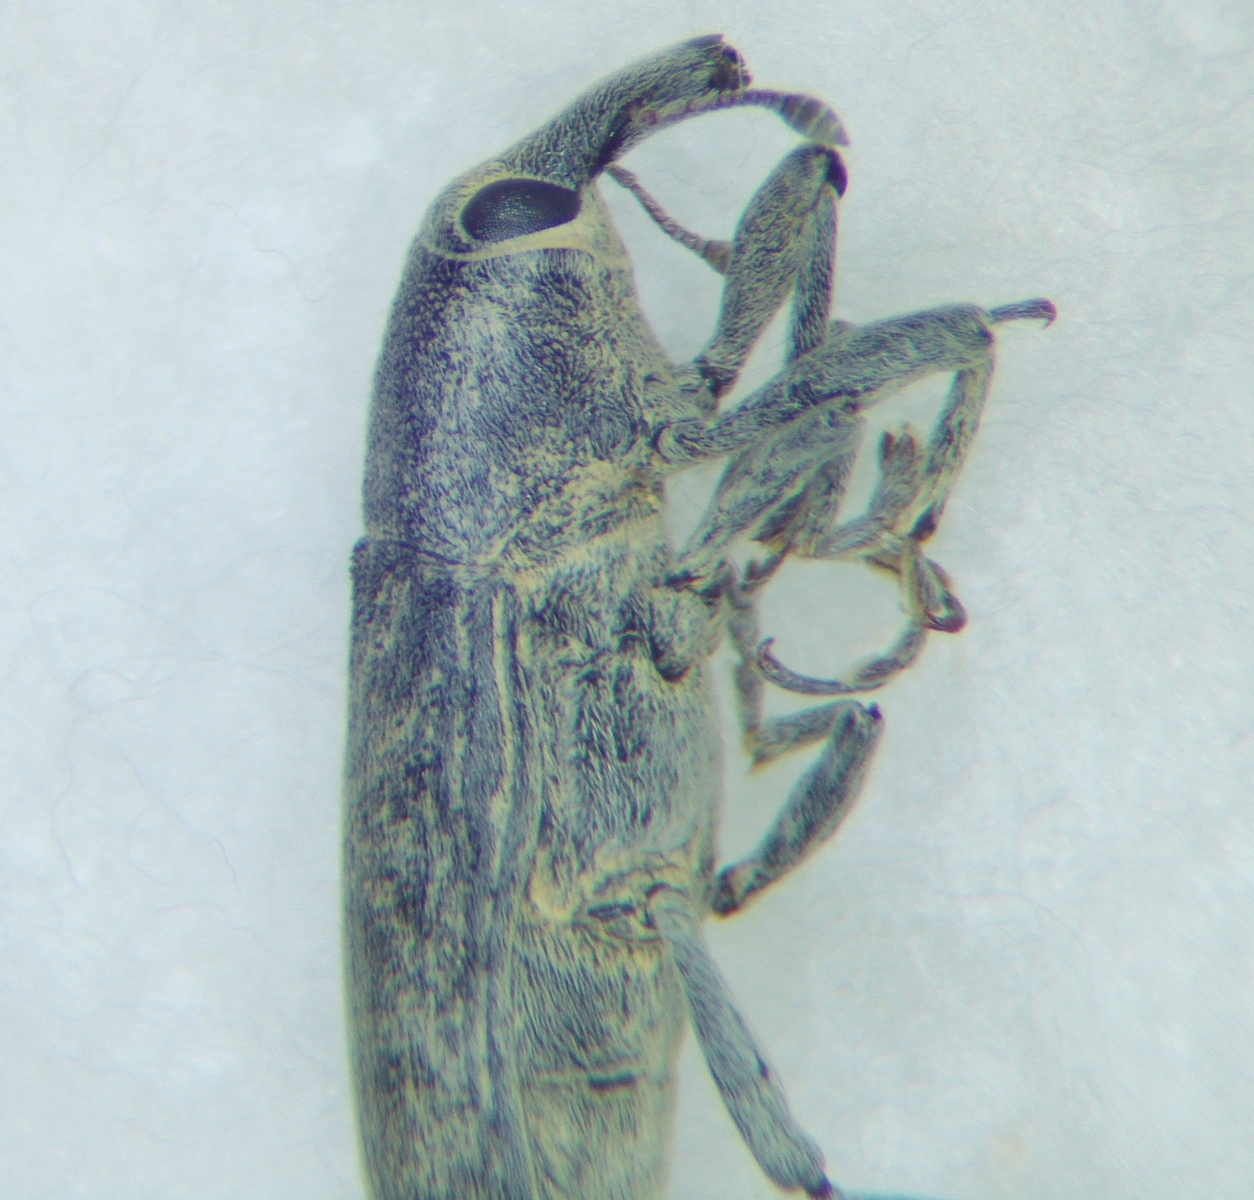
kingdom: Animalia
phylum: Arthropoda
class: Insecta
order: Coleoptera
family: Curculionidae
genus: Lixus
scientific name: Lixus rubicundus
